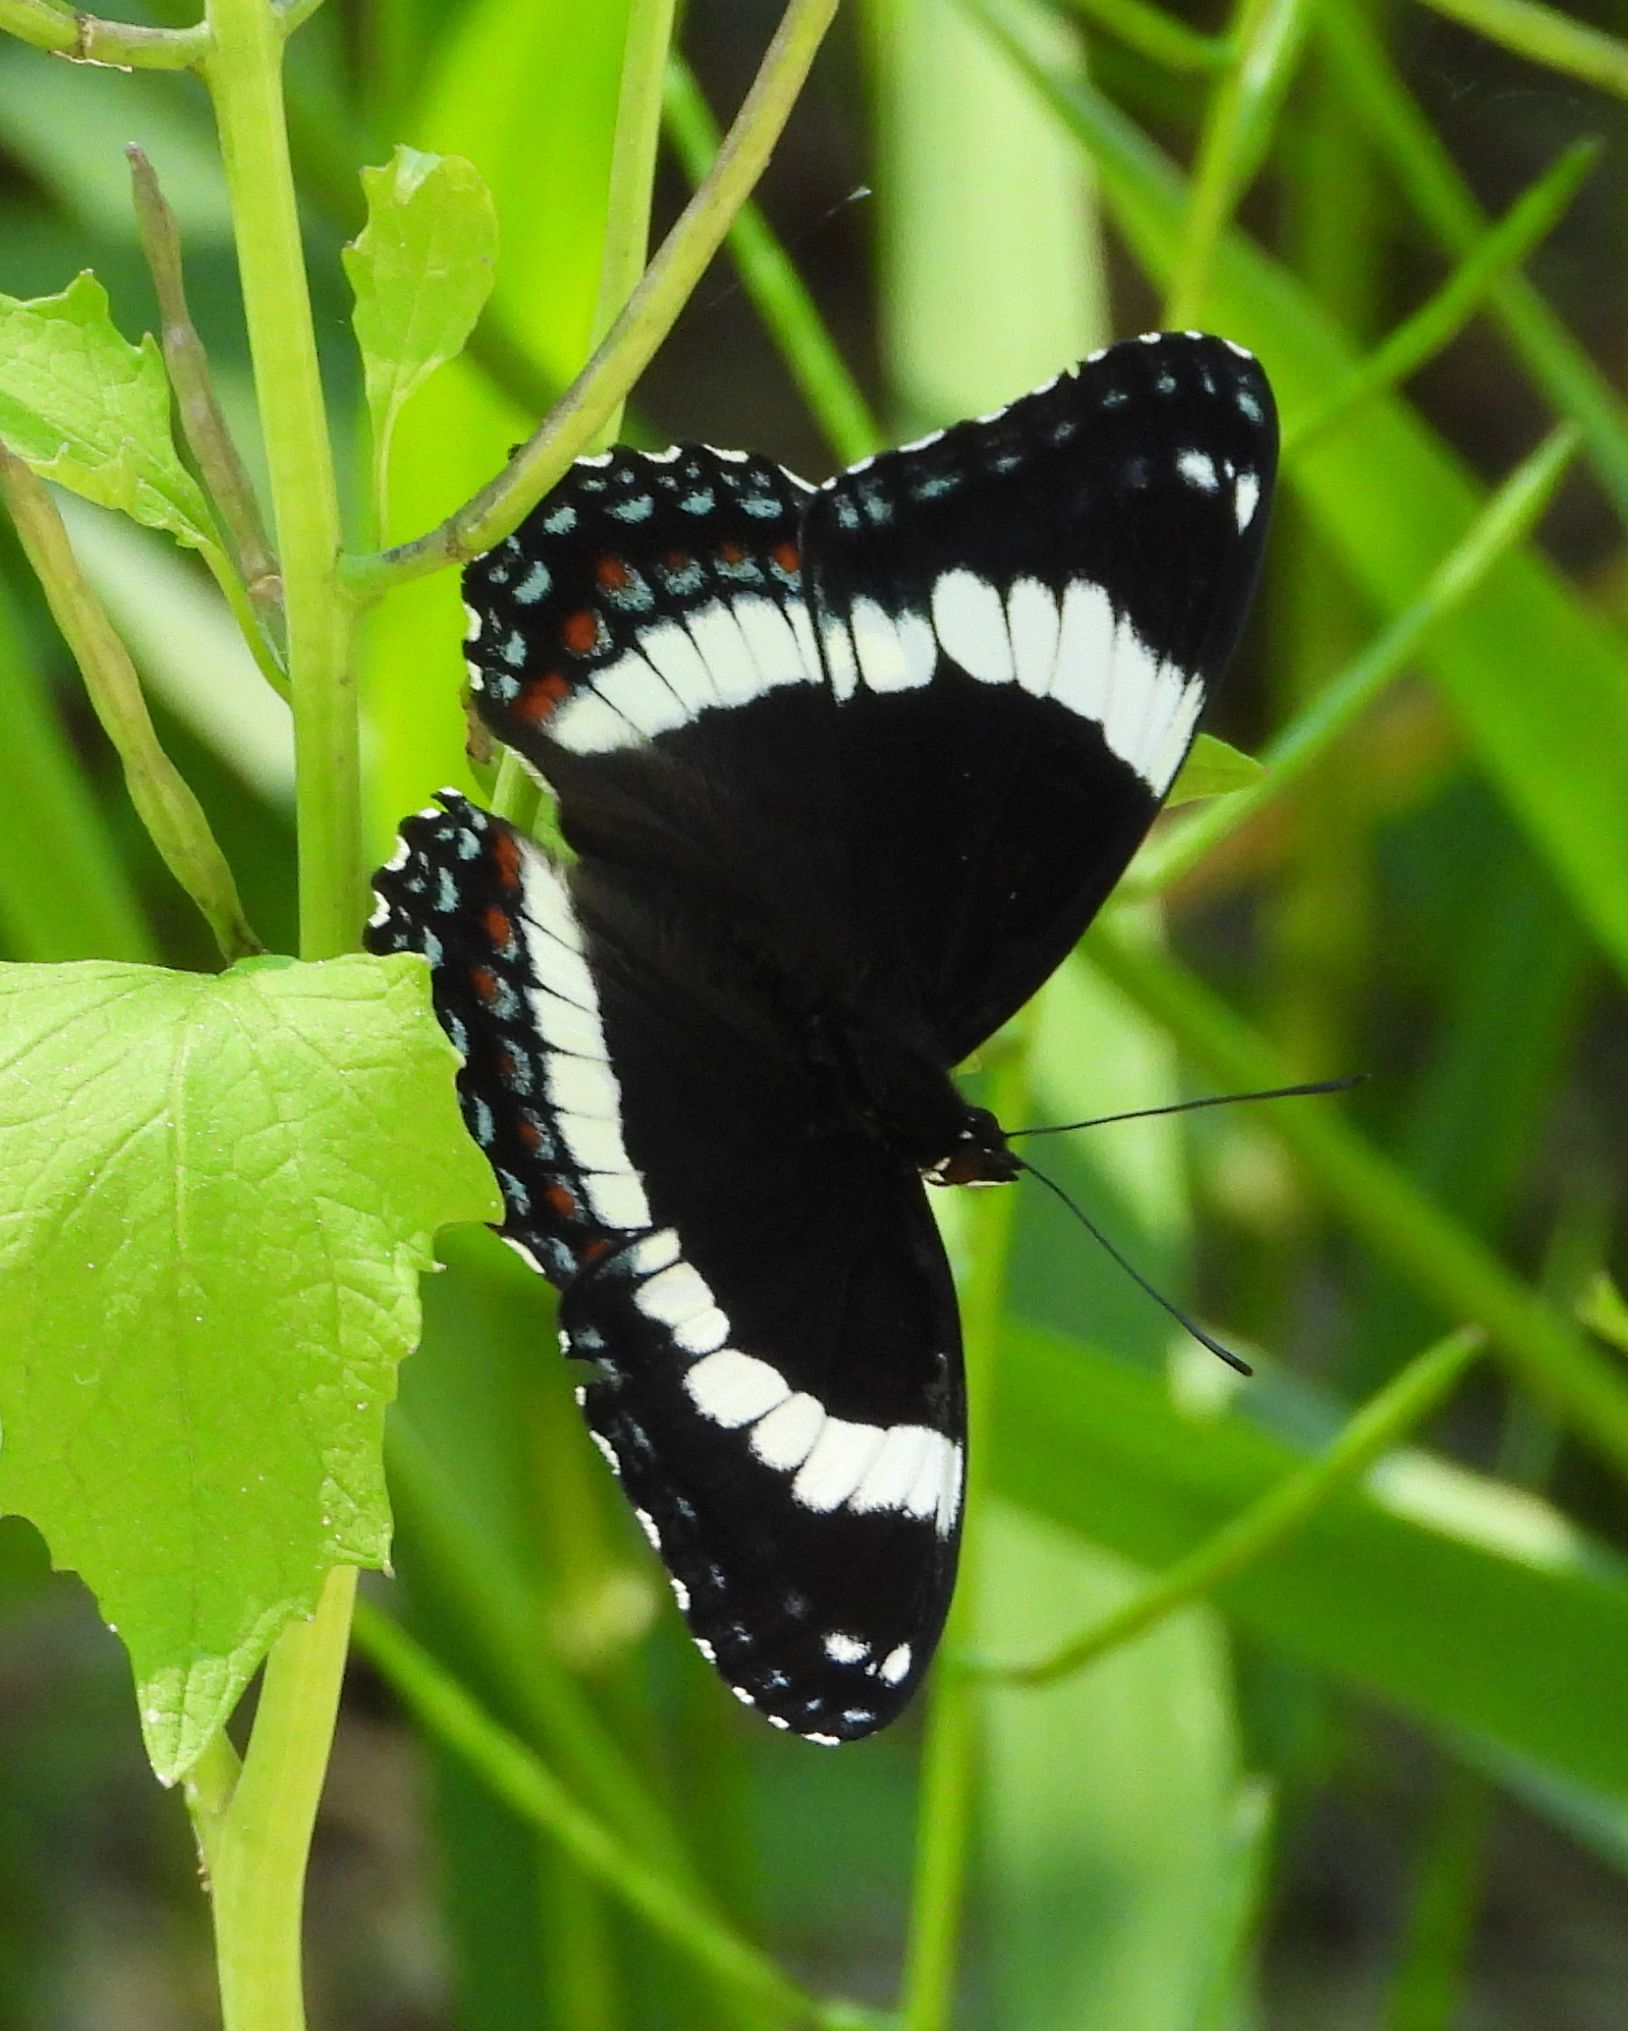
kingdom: Animalia
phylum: Arthropoda
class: Insecta
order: Lepidoptera
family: Nymphalidae
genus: Limenitis
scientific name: Limenitis arthemis
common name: Red-spotted admiral
